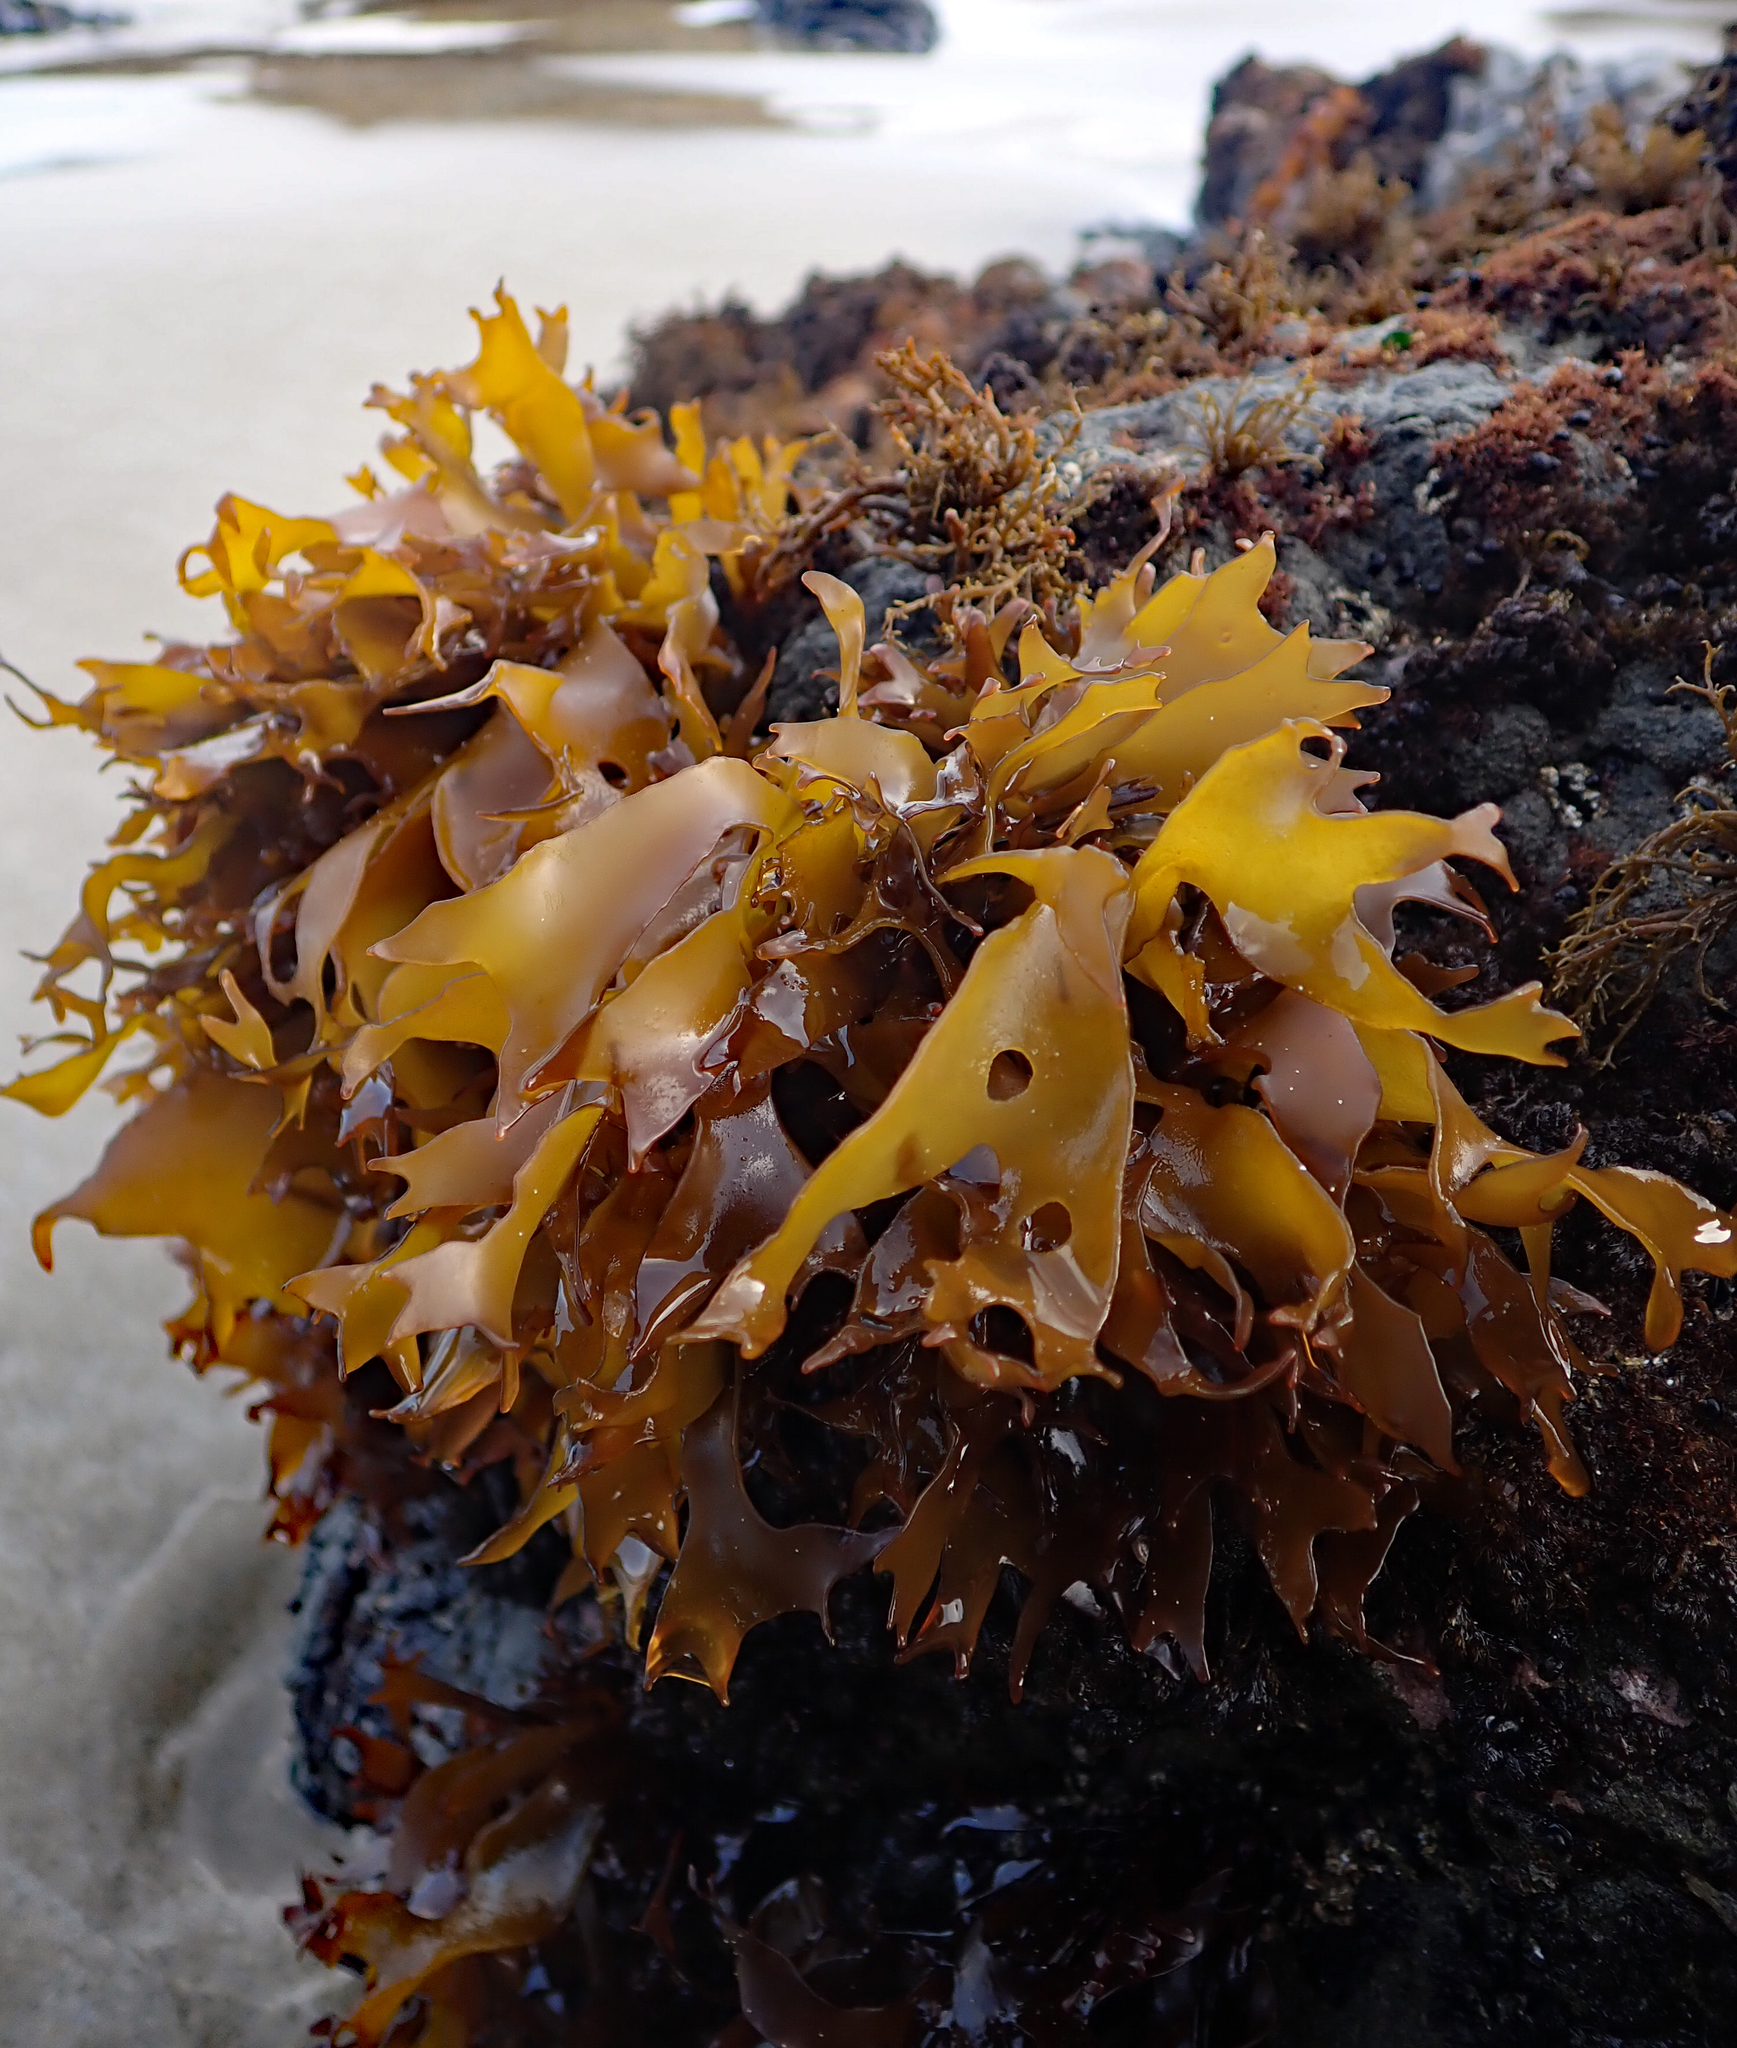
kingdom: Plantae
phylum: Rhodophyta
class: Florideophyceae
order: Halymeniales
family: Halymeniaceae
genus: Pachymenia
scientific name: Pachymenia dichotoma
